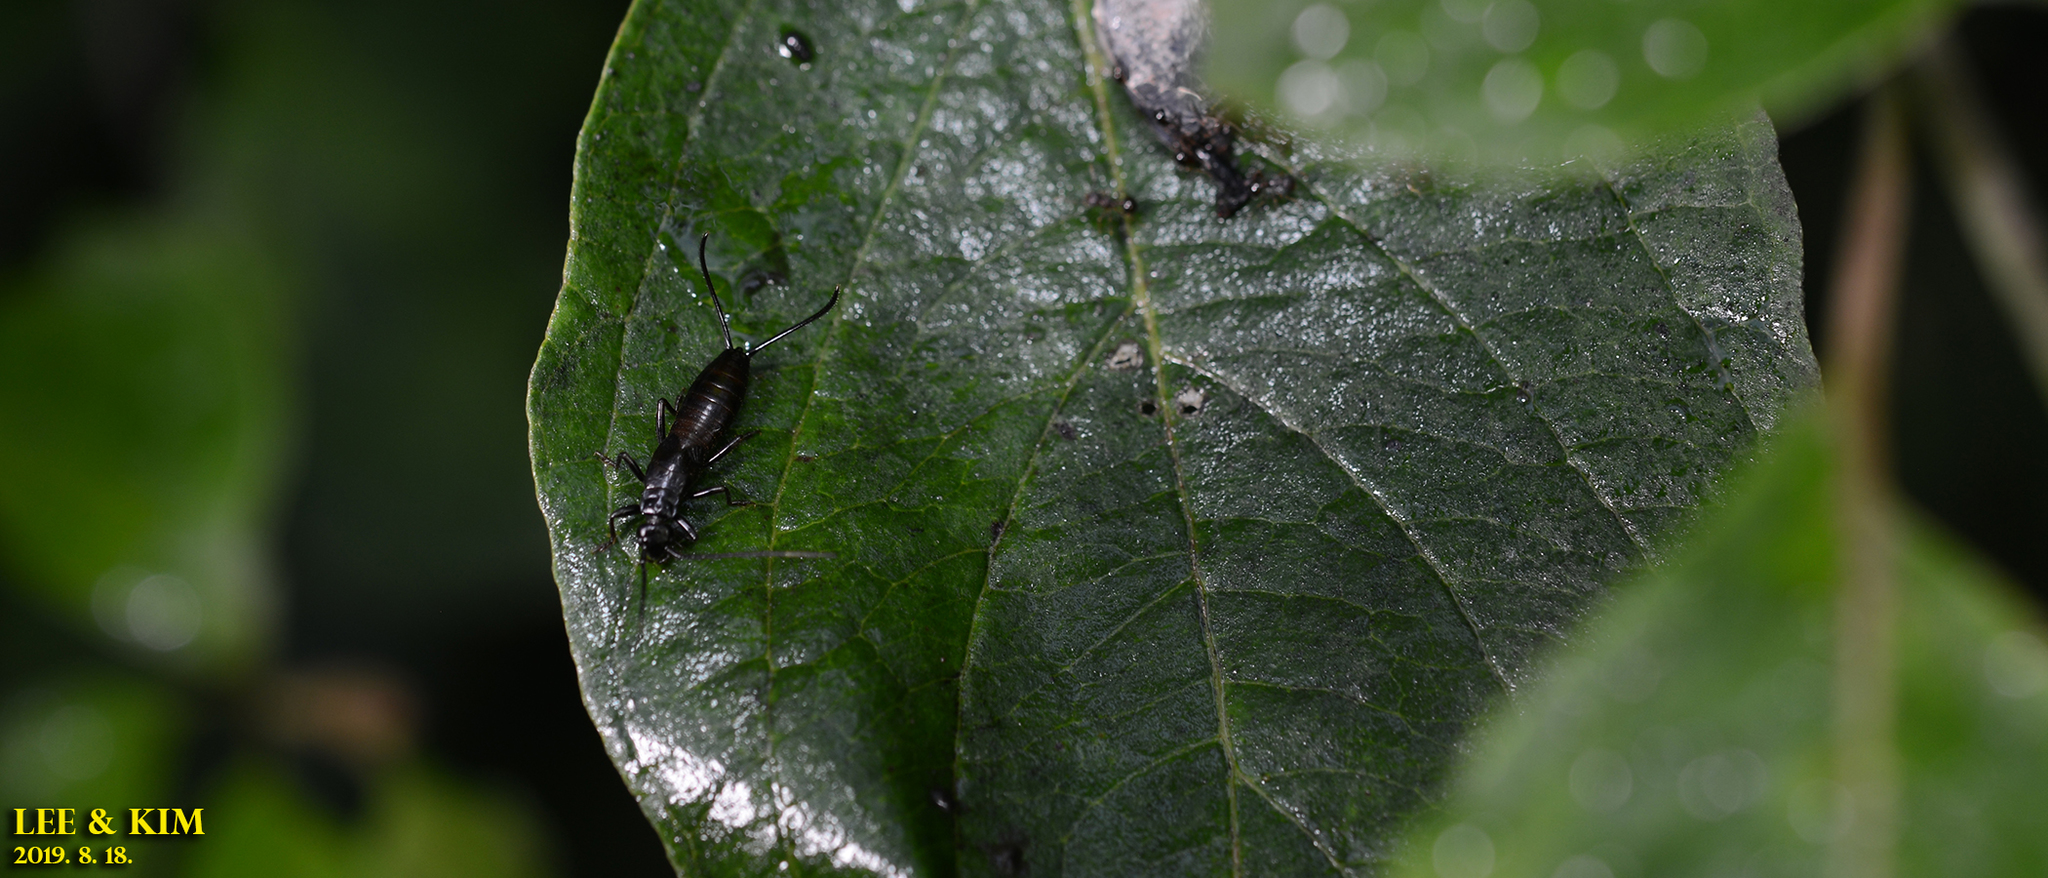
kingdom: Animalia
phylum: Arthropoda
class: Insecta
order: Dermaptera
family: Forficulidae
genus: Timomenus
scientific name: Timomenus komarovi
